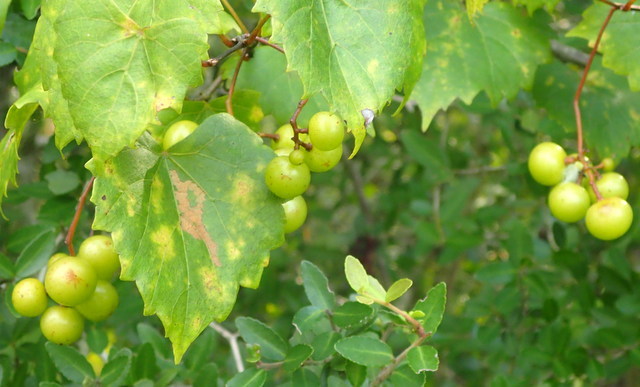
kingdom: Plantae
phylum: Tracheophyta
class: Magnoliopsida
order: Vitales
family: Vitaceae
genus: Vitis
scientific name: Vitis rotundifolia
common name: Muscadine grape
